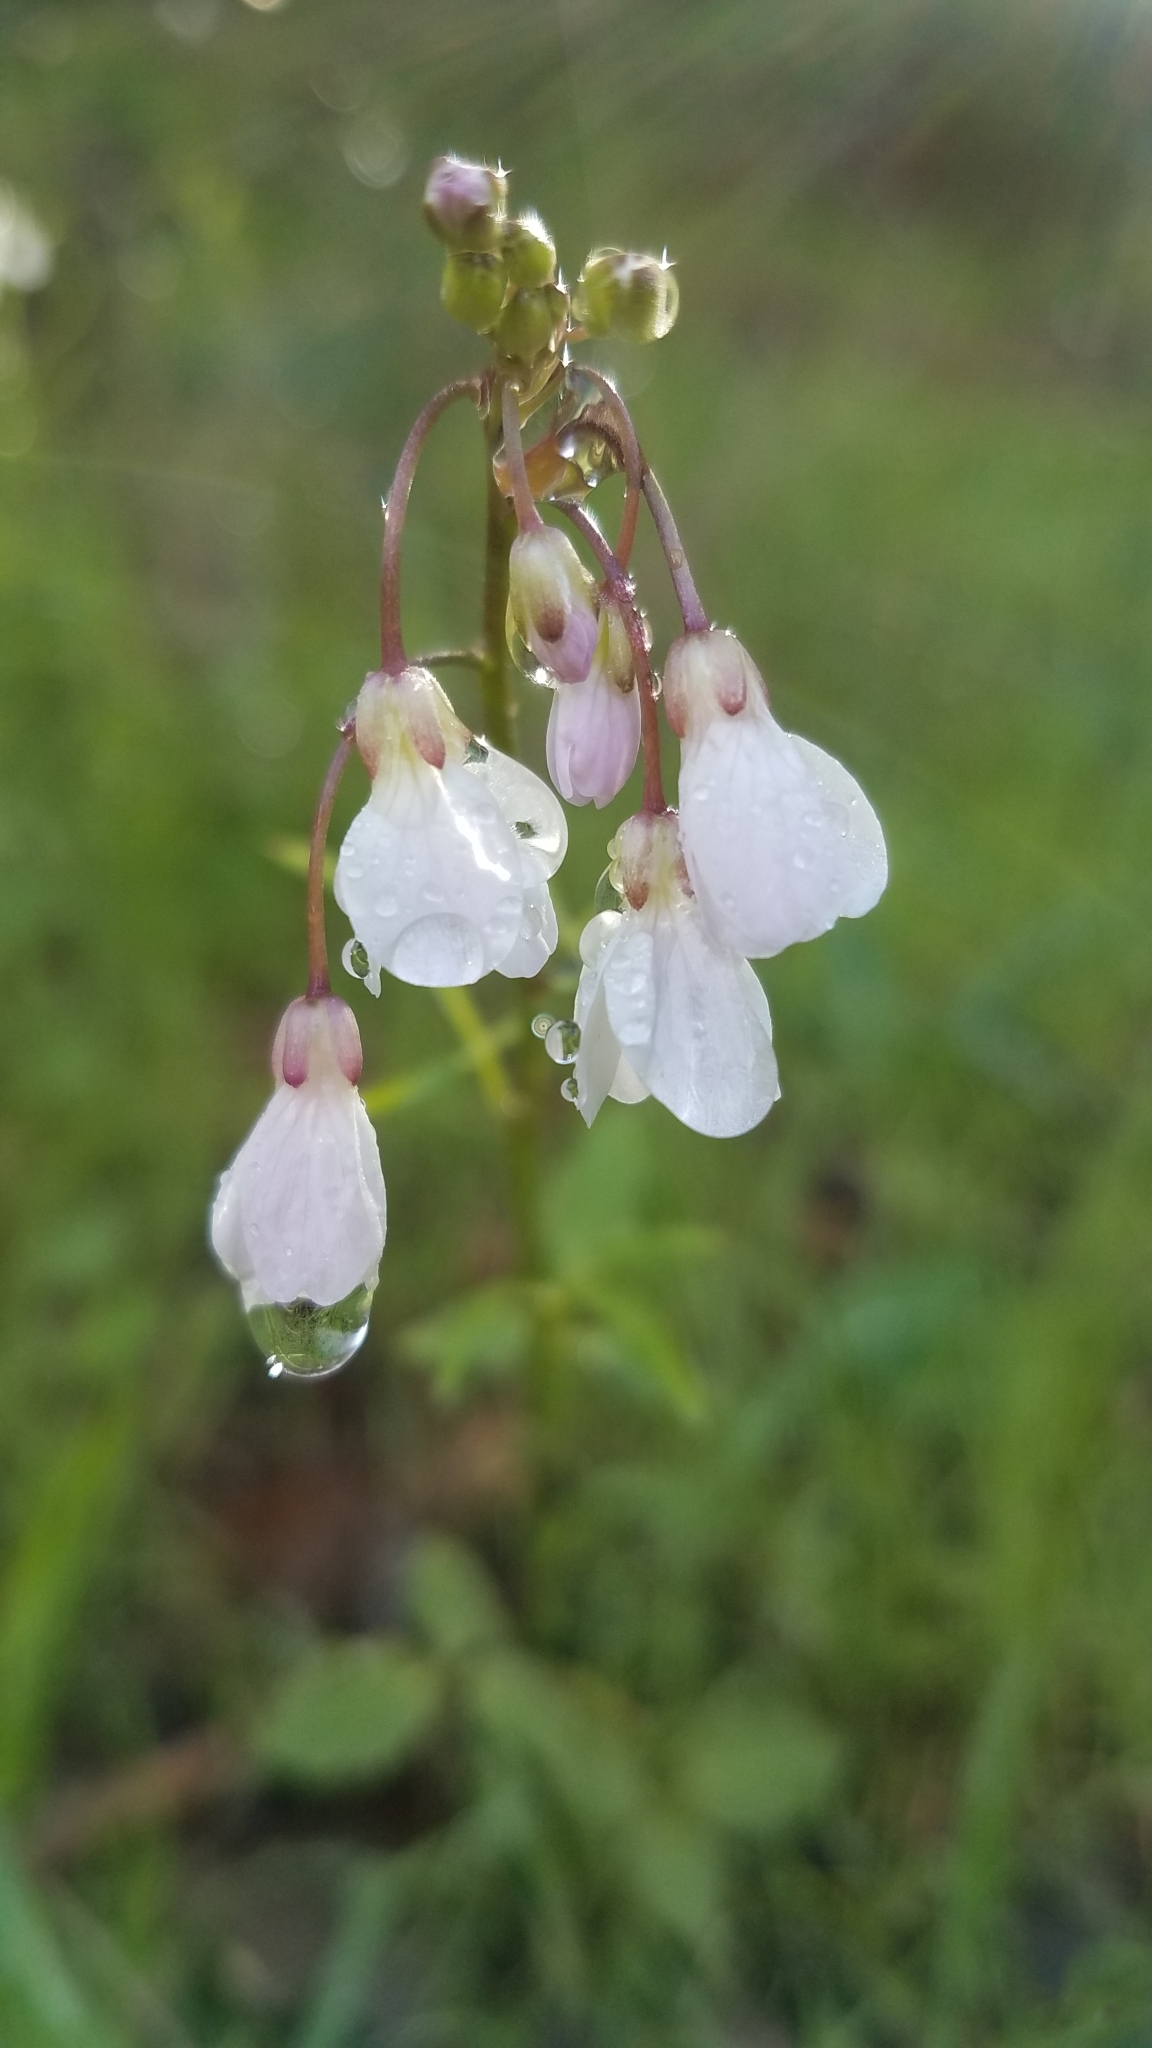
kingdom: Plantae
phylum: Tracheophyta
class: Magnoliopsida
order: Brassicales
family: Brassicaceae
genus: Cardamine
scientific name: Cardamine californica
